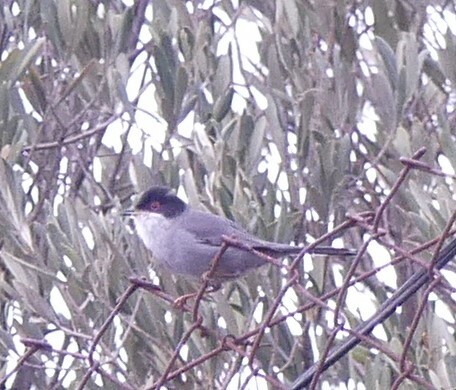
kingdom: Animalia
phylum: Chordata
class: Aves
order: Passeriformes
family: Sylviidae
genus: Curruca
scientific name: Curruca melanocephala
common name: Sardinian warbler
